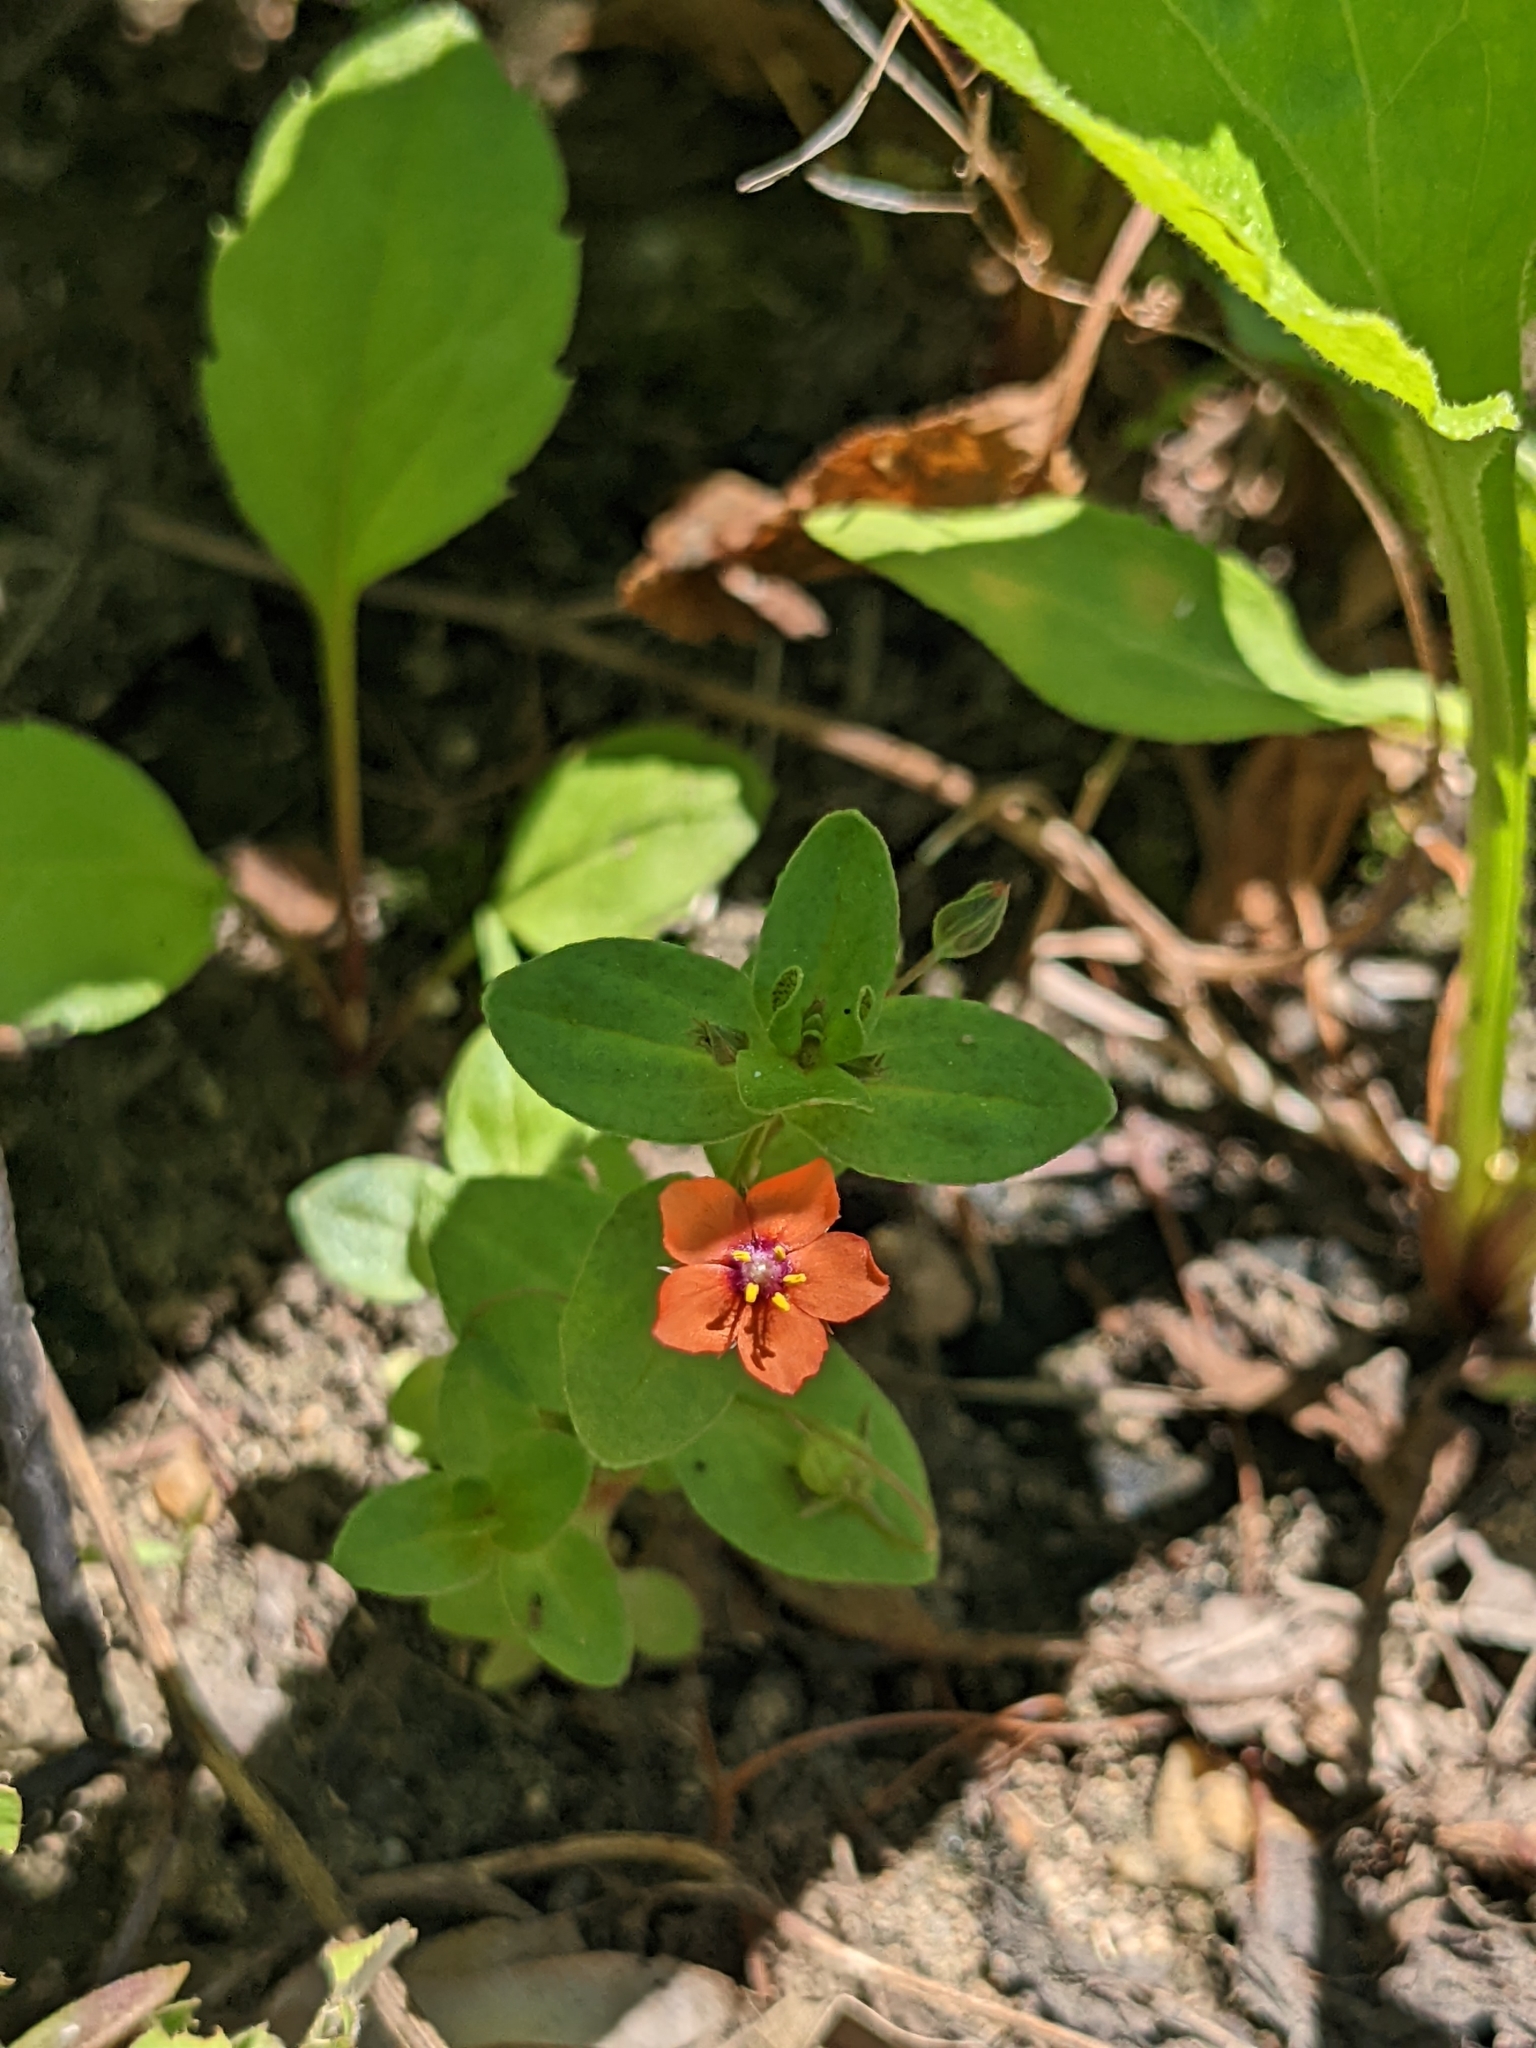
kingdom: Plantae
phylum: Tracheophyta
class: Magnoliopsida
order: Ericales
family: Primulaceae
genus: Lysimachia
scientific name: Lysimachia arvensis
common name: Scarlet pimpernel
